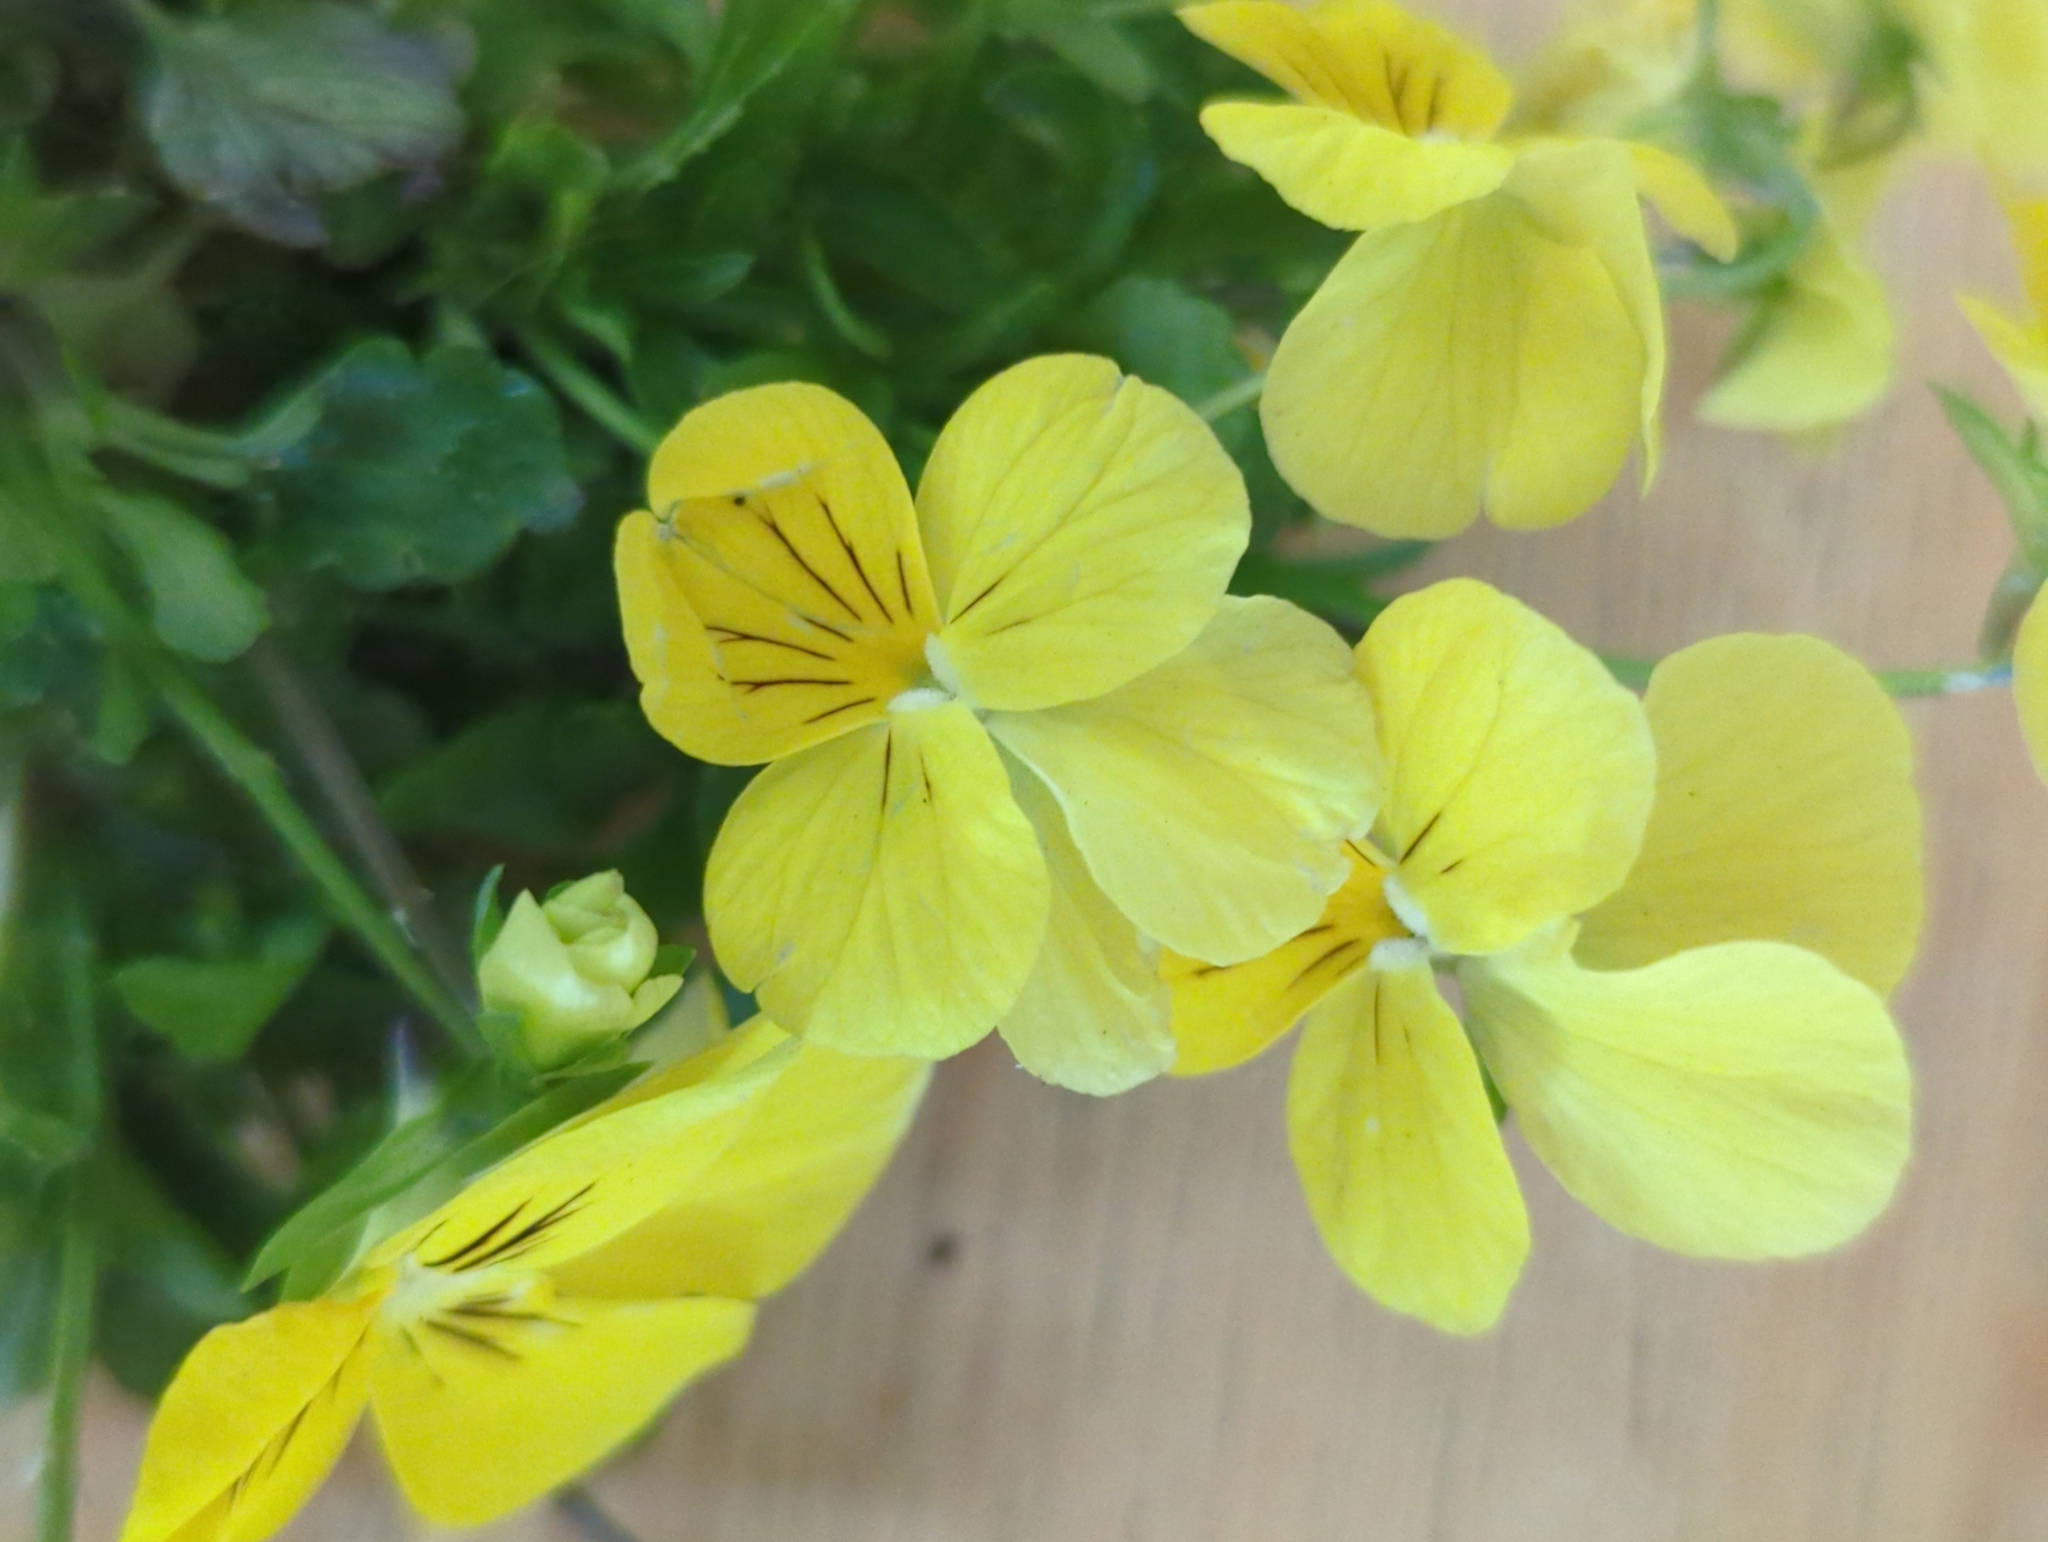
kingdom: Plantae
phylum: Tracheophyta
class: Magnoliopsida
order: Malpighiales
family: Violaceae
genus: Viola
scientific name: Viola williamsii
